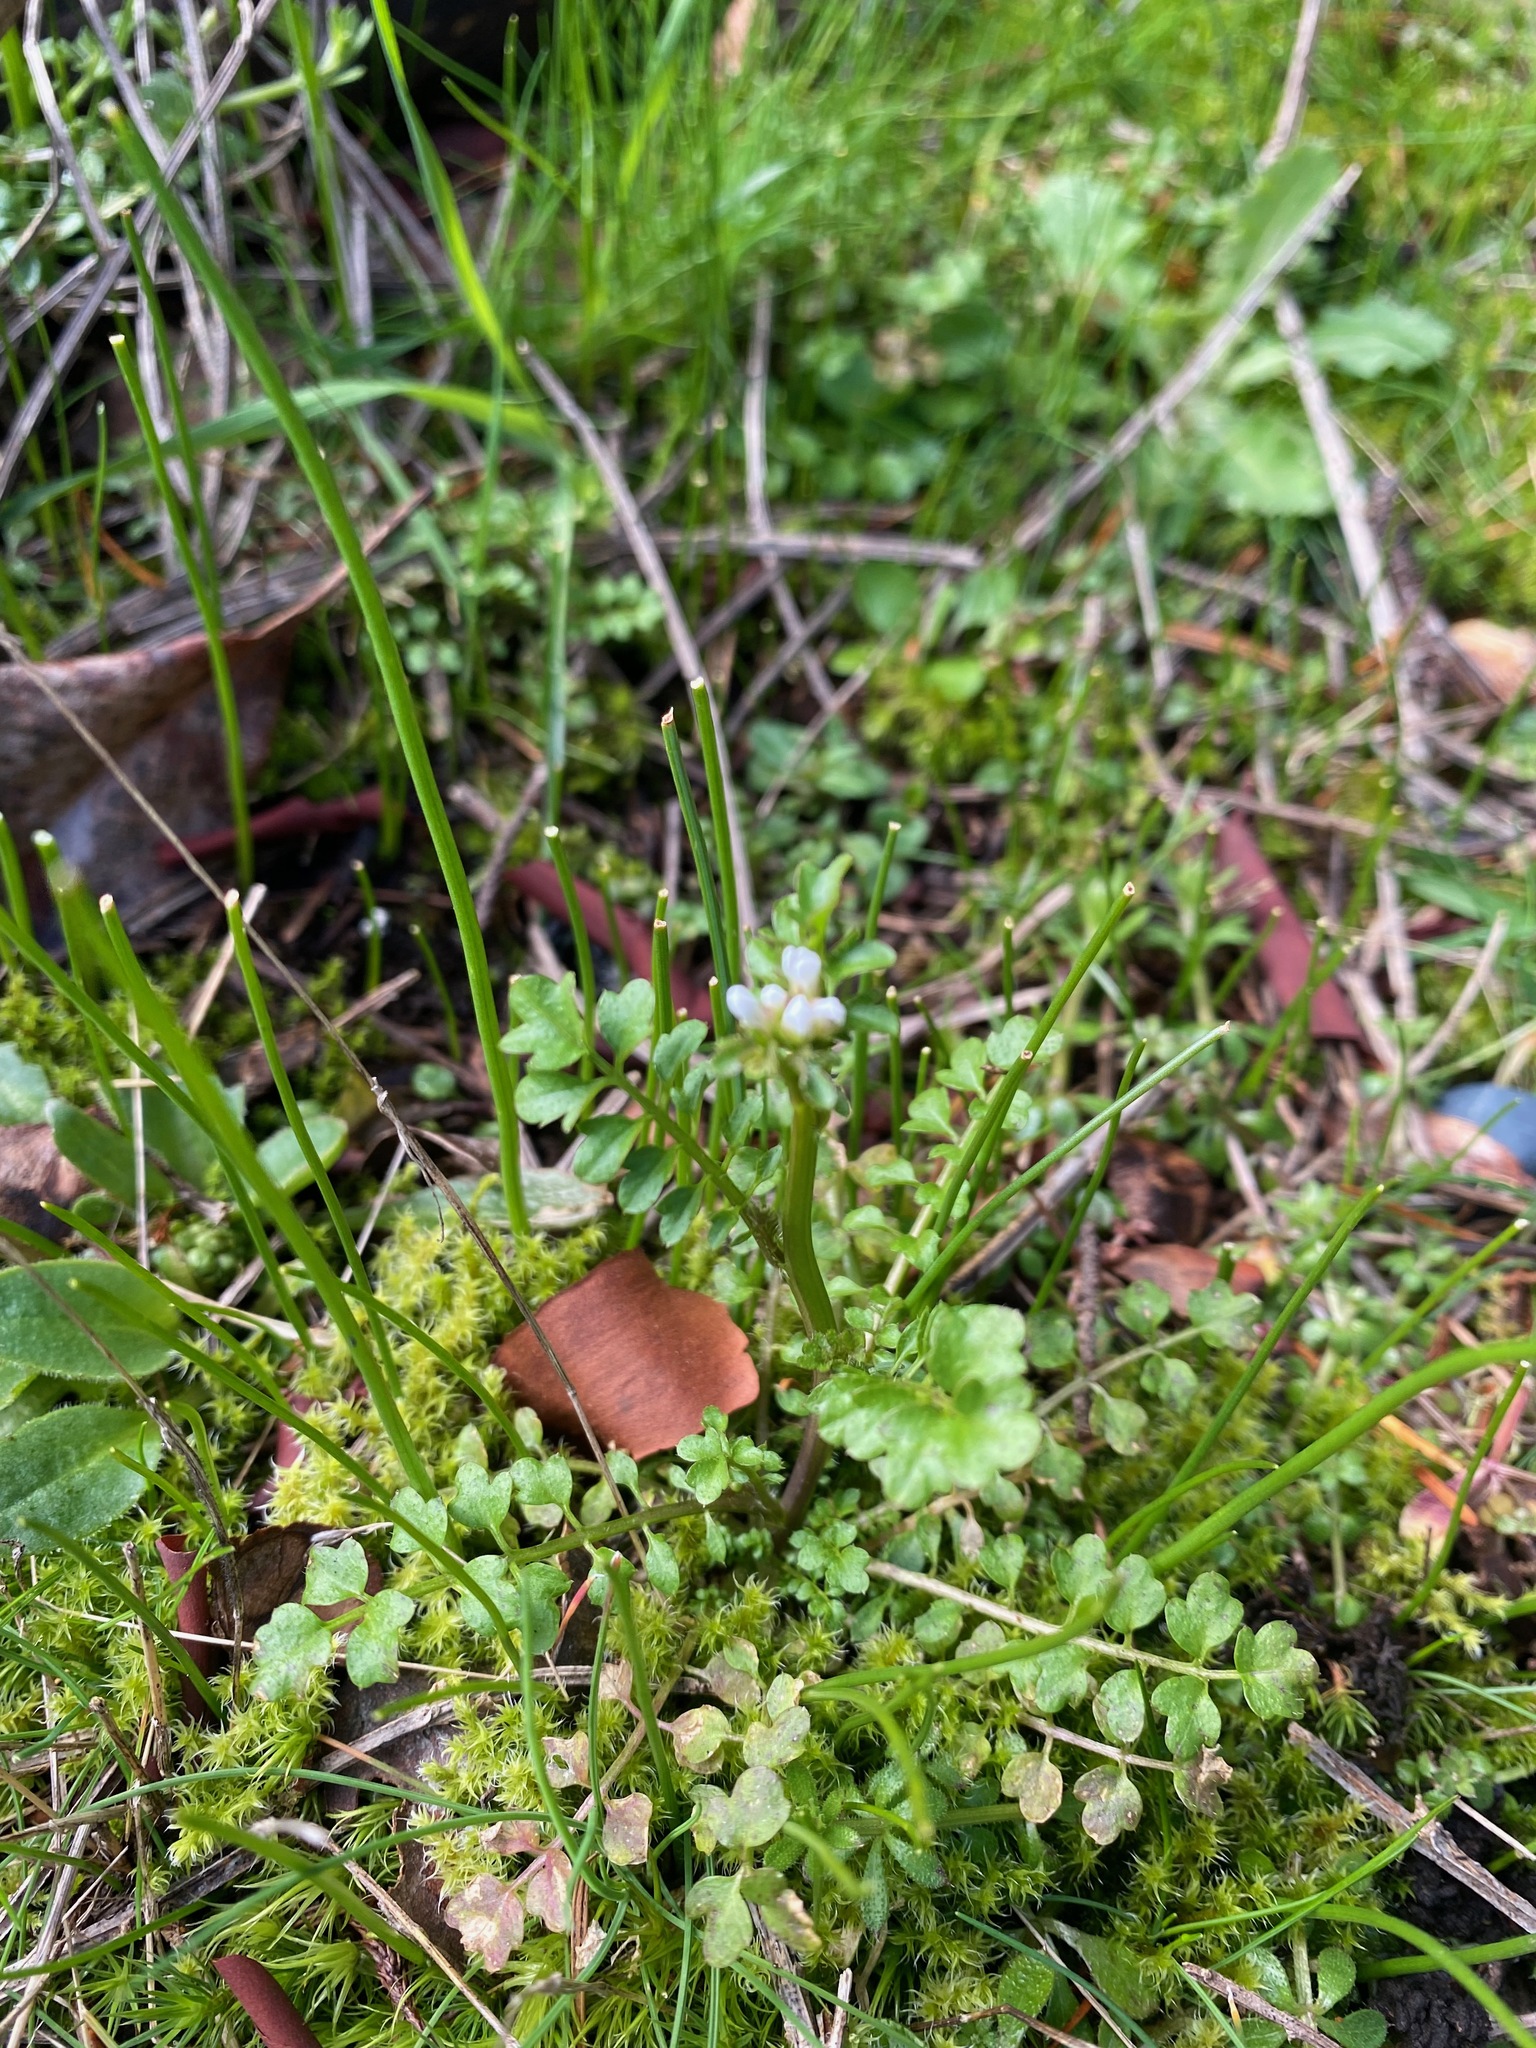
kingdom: Plantae
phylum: Tracheophyta
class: Magnoliopsida
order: Brassicales
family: Brassicaceae
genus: Cardamine
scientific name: Cardamine oligosperma
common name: Idaho bittercress
